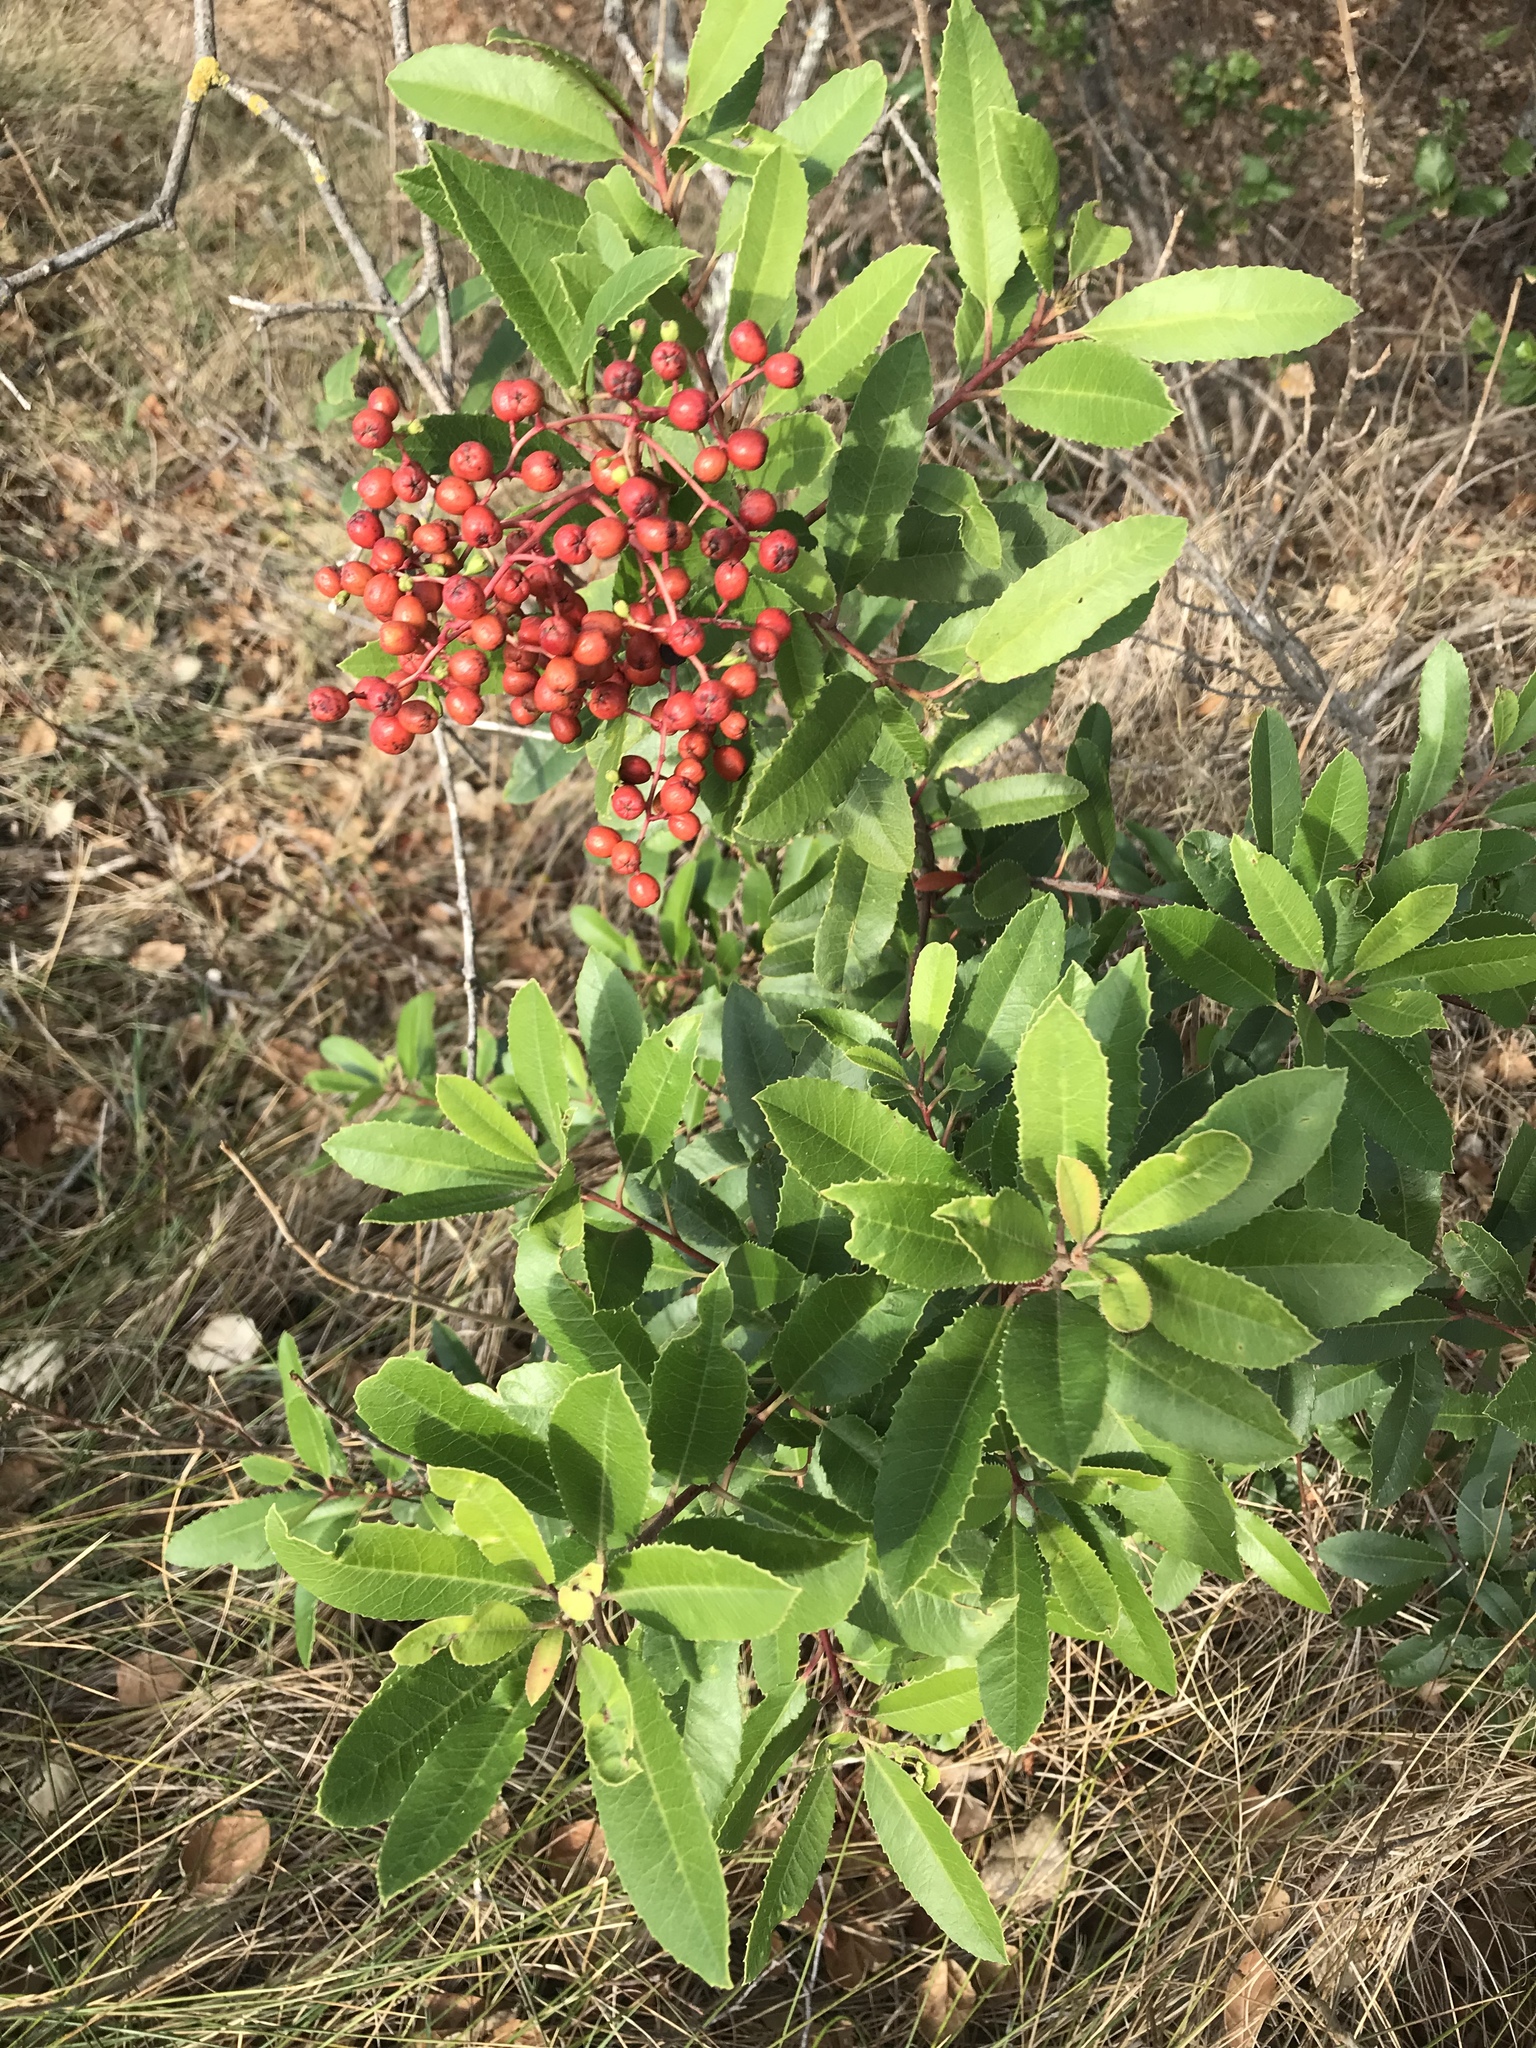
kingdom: Plantae
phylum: Tracheophyta
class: Magnoliopsida
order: Rosales
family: Rosaceae
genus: Heteromeles
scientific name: Heteromeles arbutifolia
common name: California-holly
